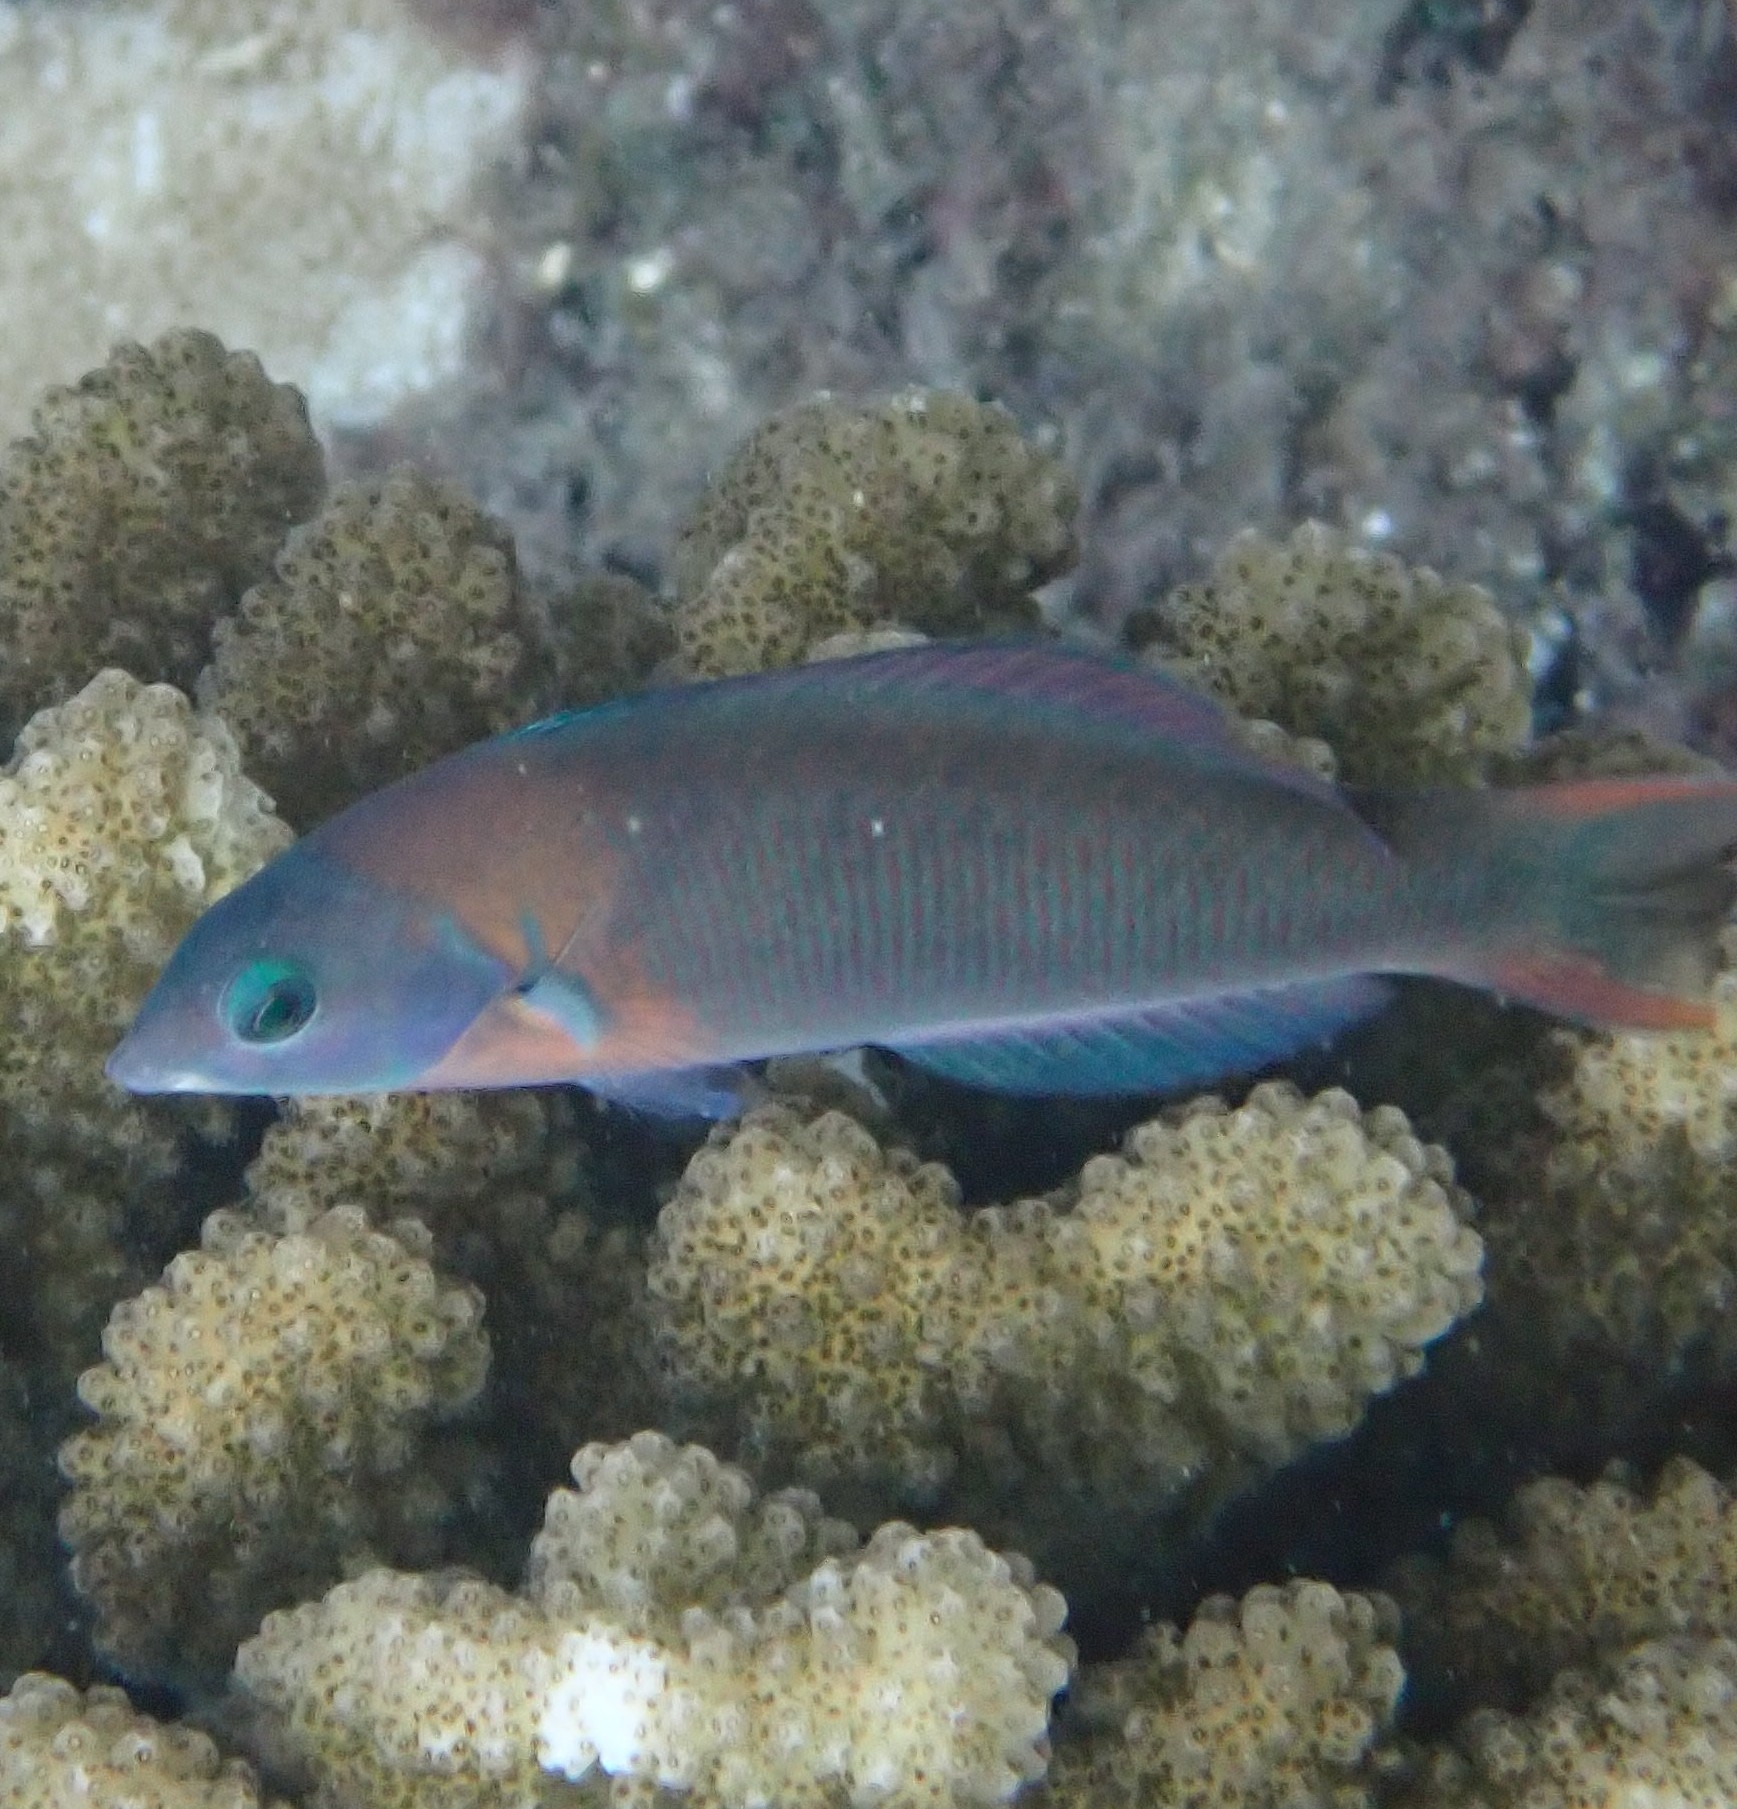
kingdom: Animalia
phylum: Chordata
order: Perciformes
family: Labridae
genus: Thalassoma
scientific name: Thalassoma duperrey
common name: Saddle wrasse
